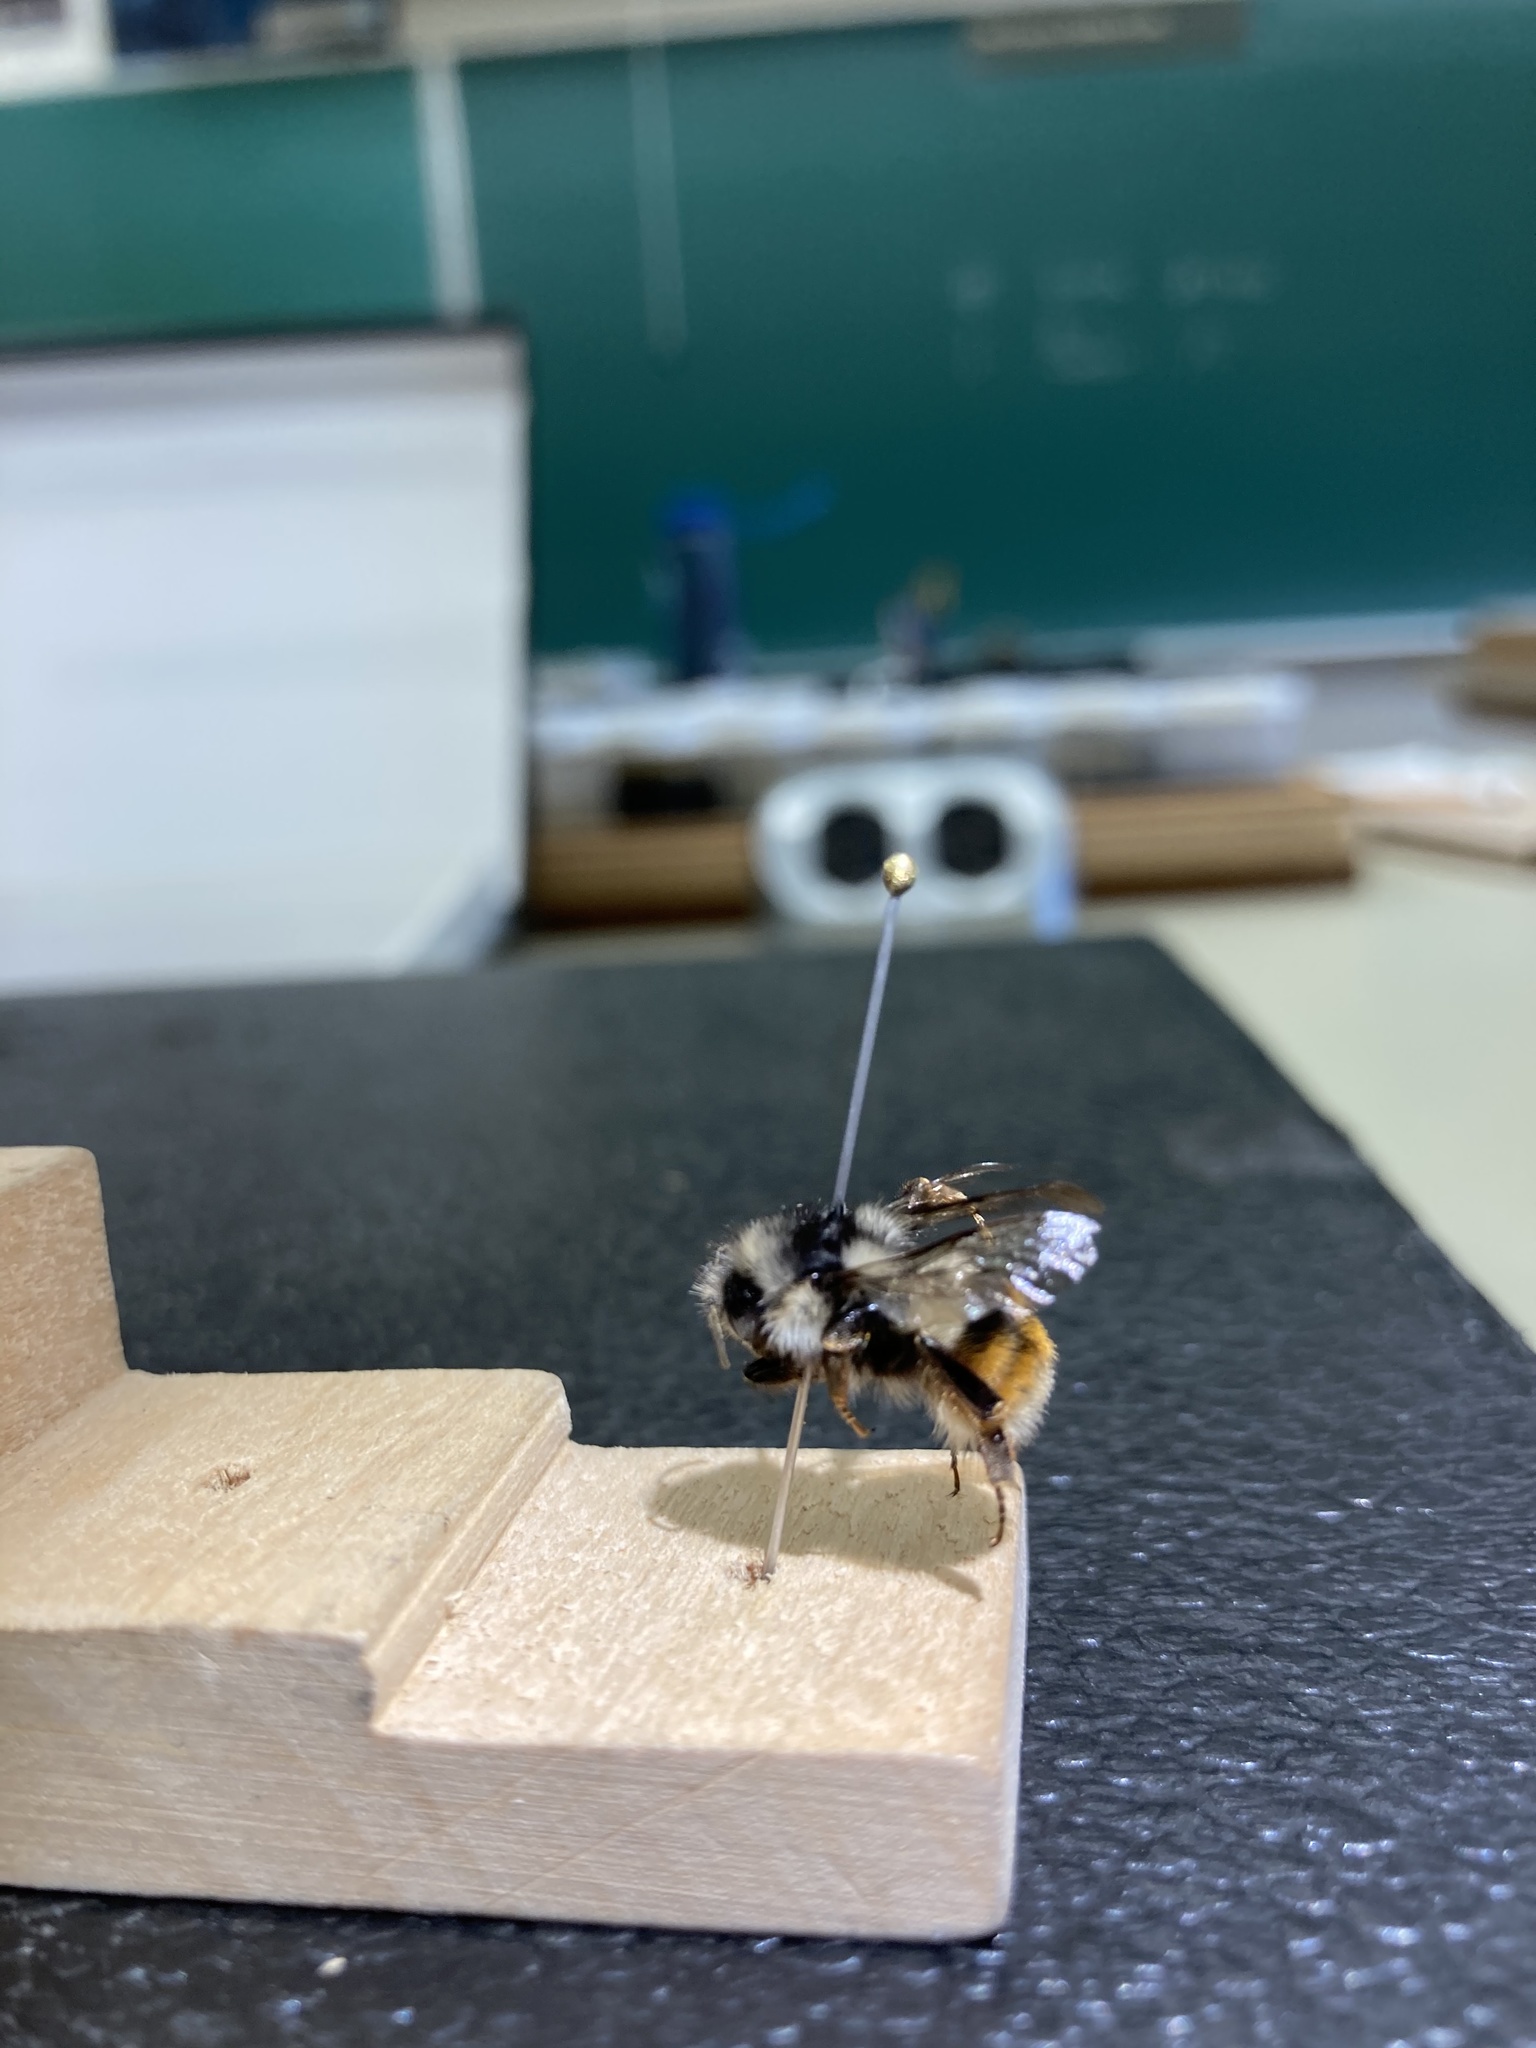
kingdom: Animalia
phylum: Arthropoda
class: Insecta
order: Hymenoptera
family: Apidae
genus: Bombus
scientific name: Bombus vancouverensis
